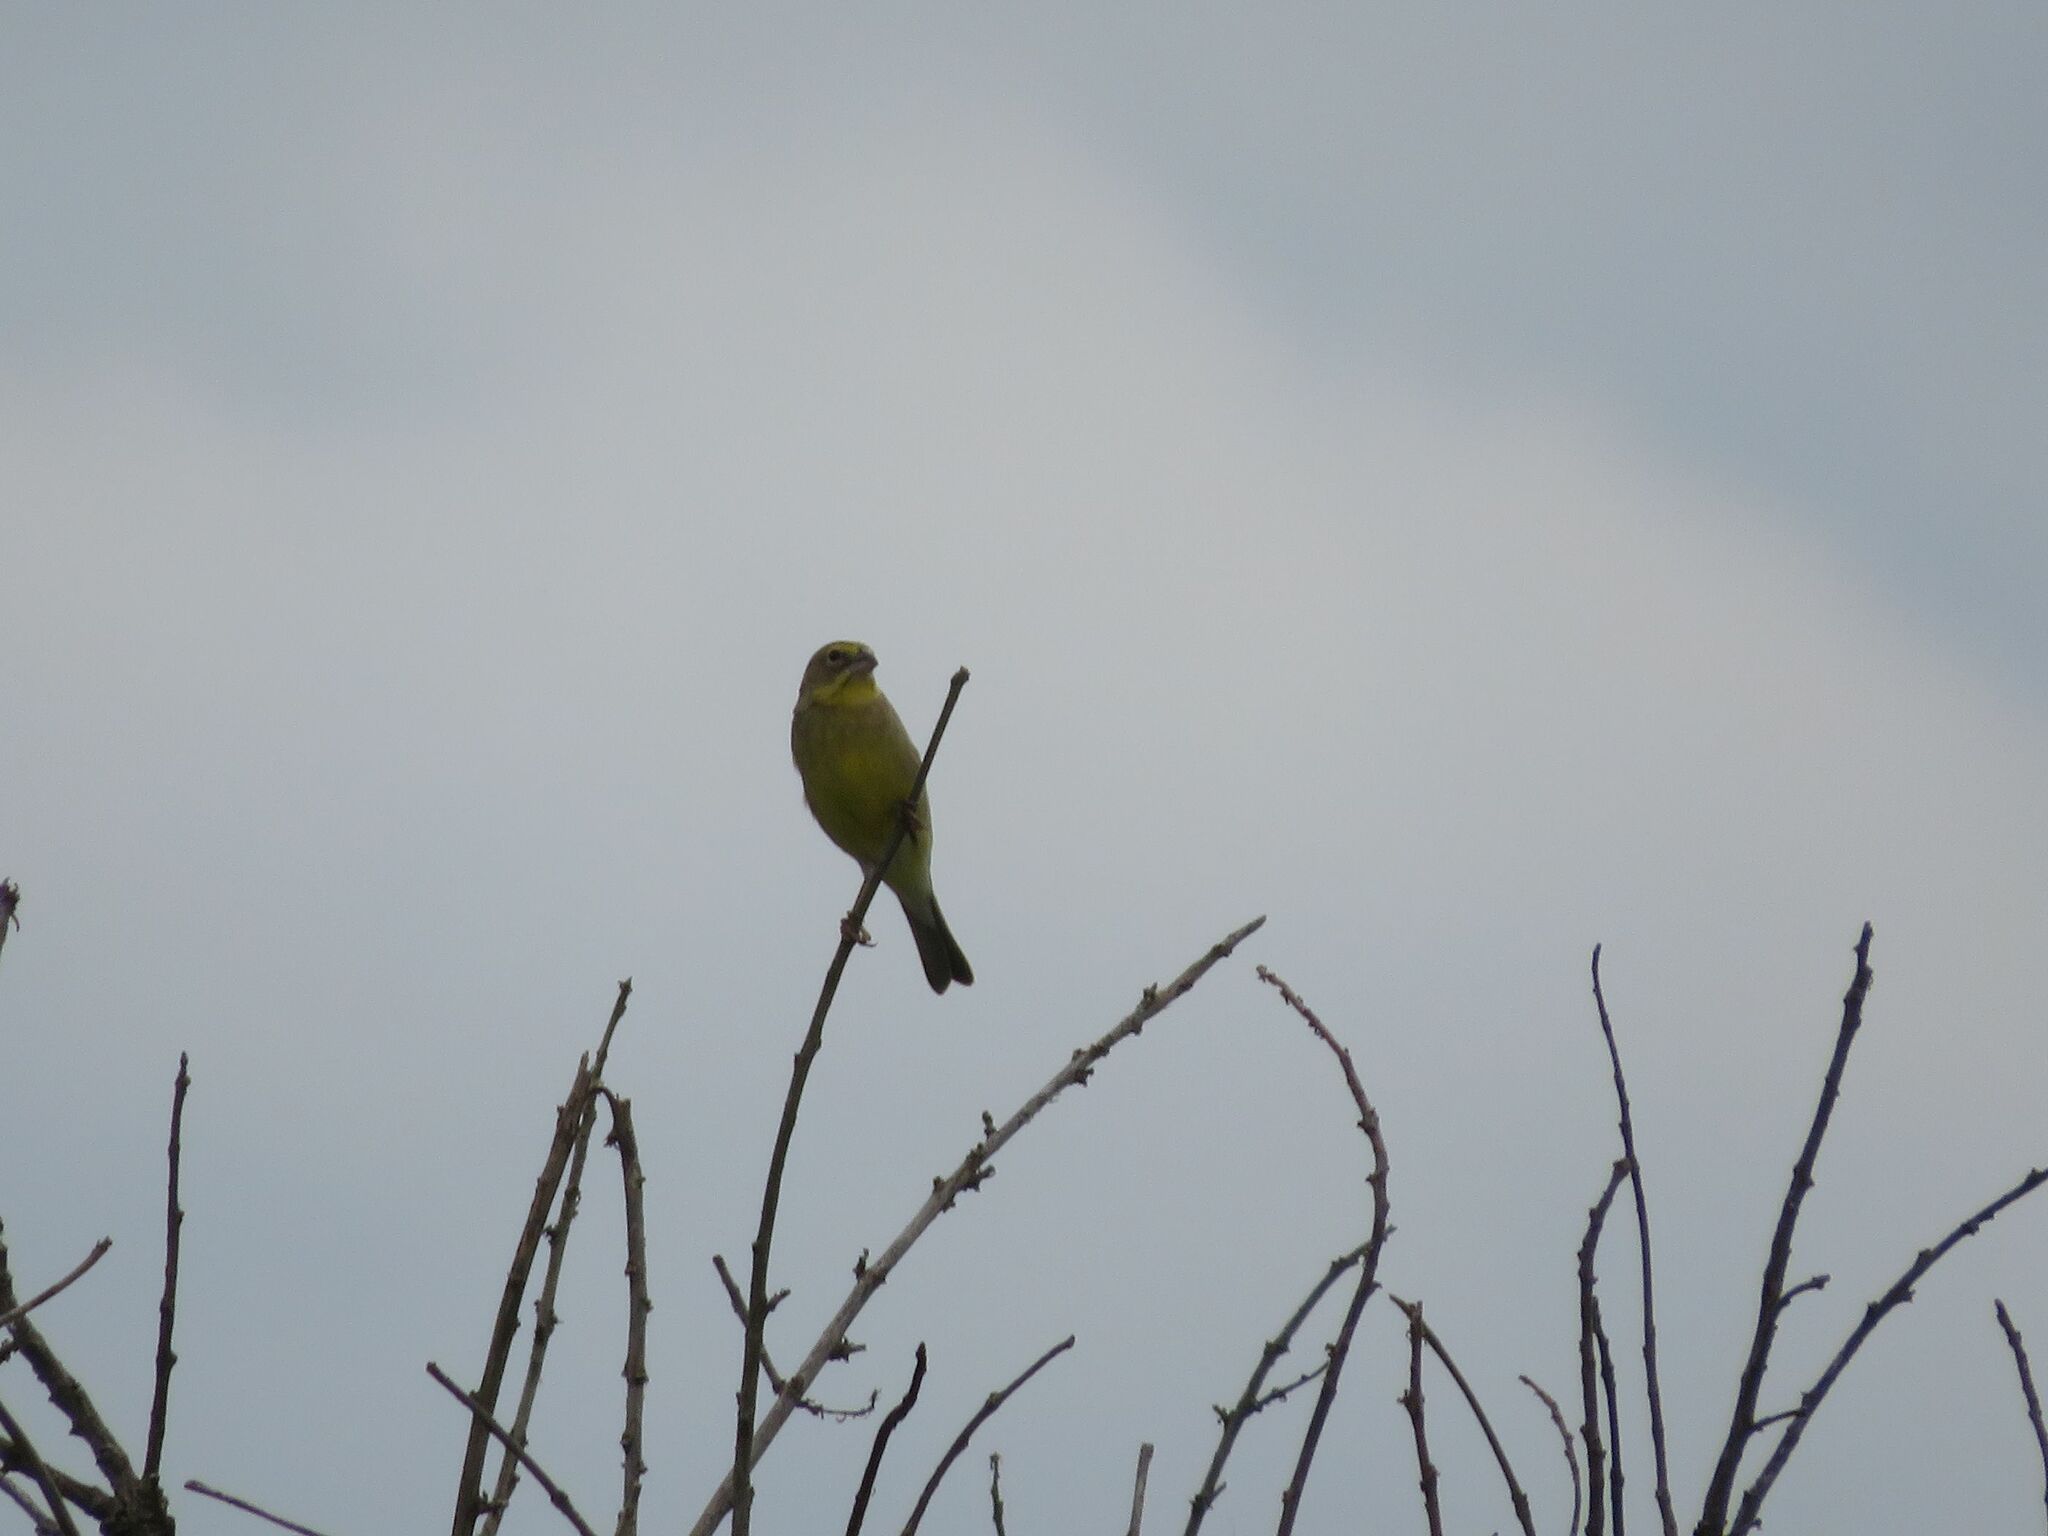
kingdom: Animalia
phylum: Chordata
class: Aves
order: Passeriformes
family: Thraupidae
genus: Sicalis
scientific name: Sicalis luteola
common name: Grassland yellow-finch
